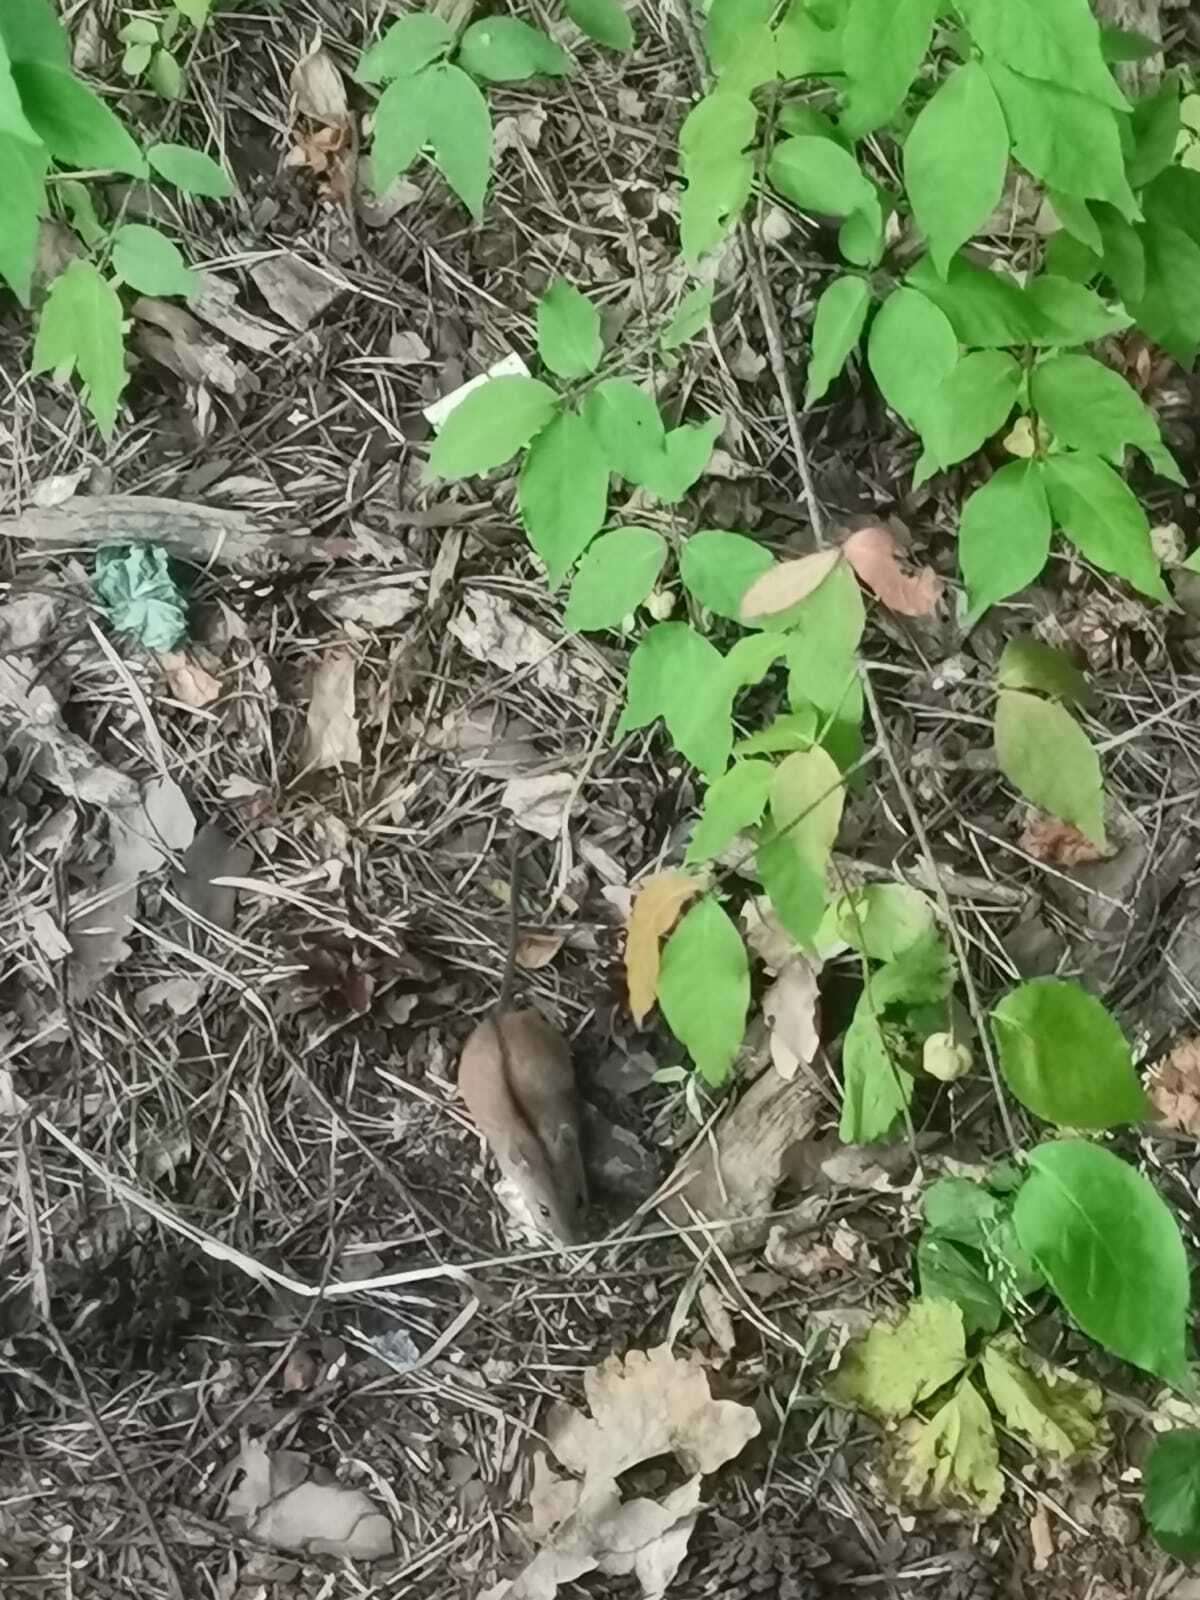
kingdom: Animalia
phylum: Chordata
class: Mammalia
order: Rodentia
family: Muridae
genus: Apodemus
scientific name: Apodemus agrarius
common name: Striped field mouse
